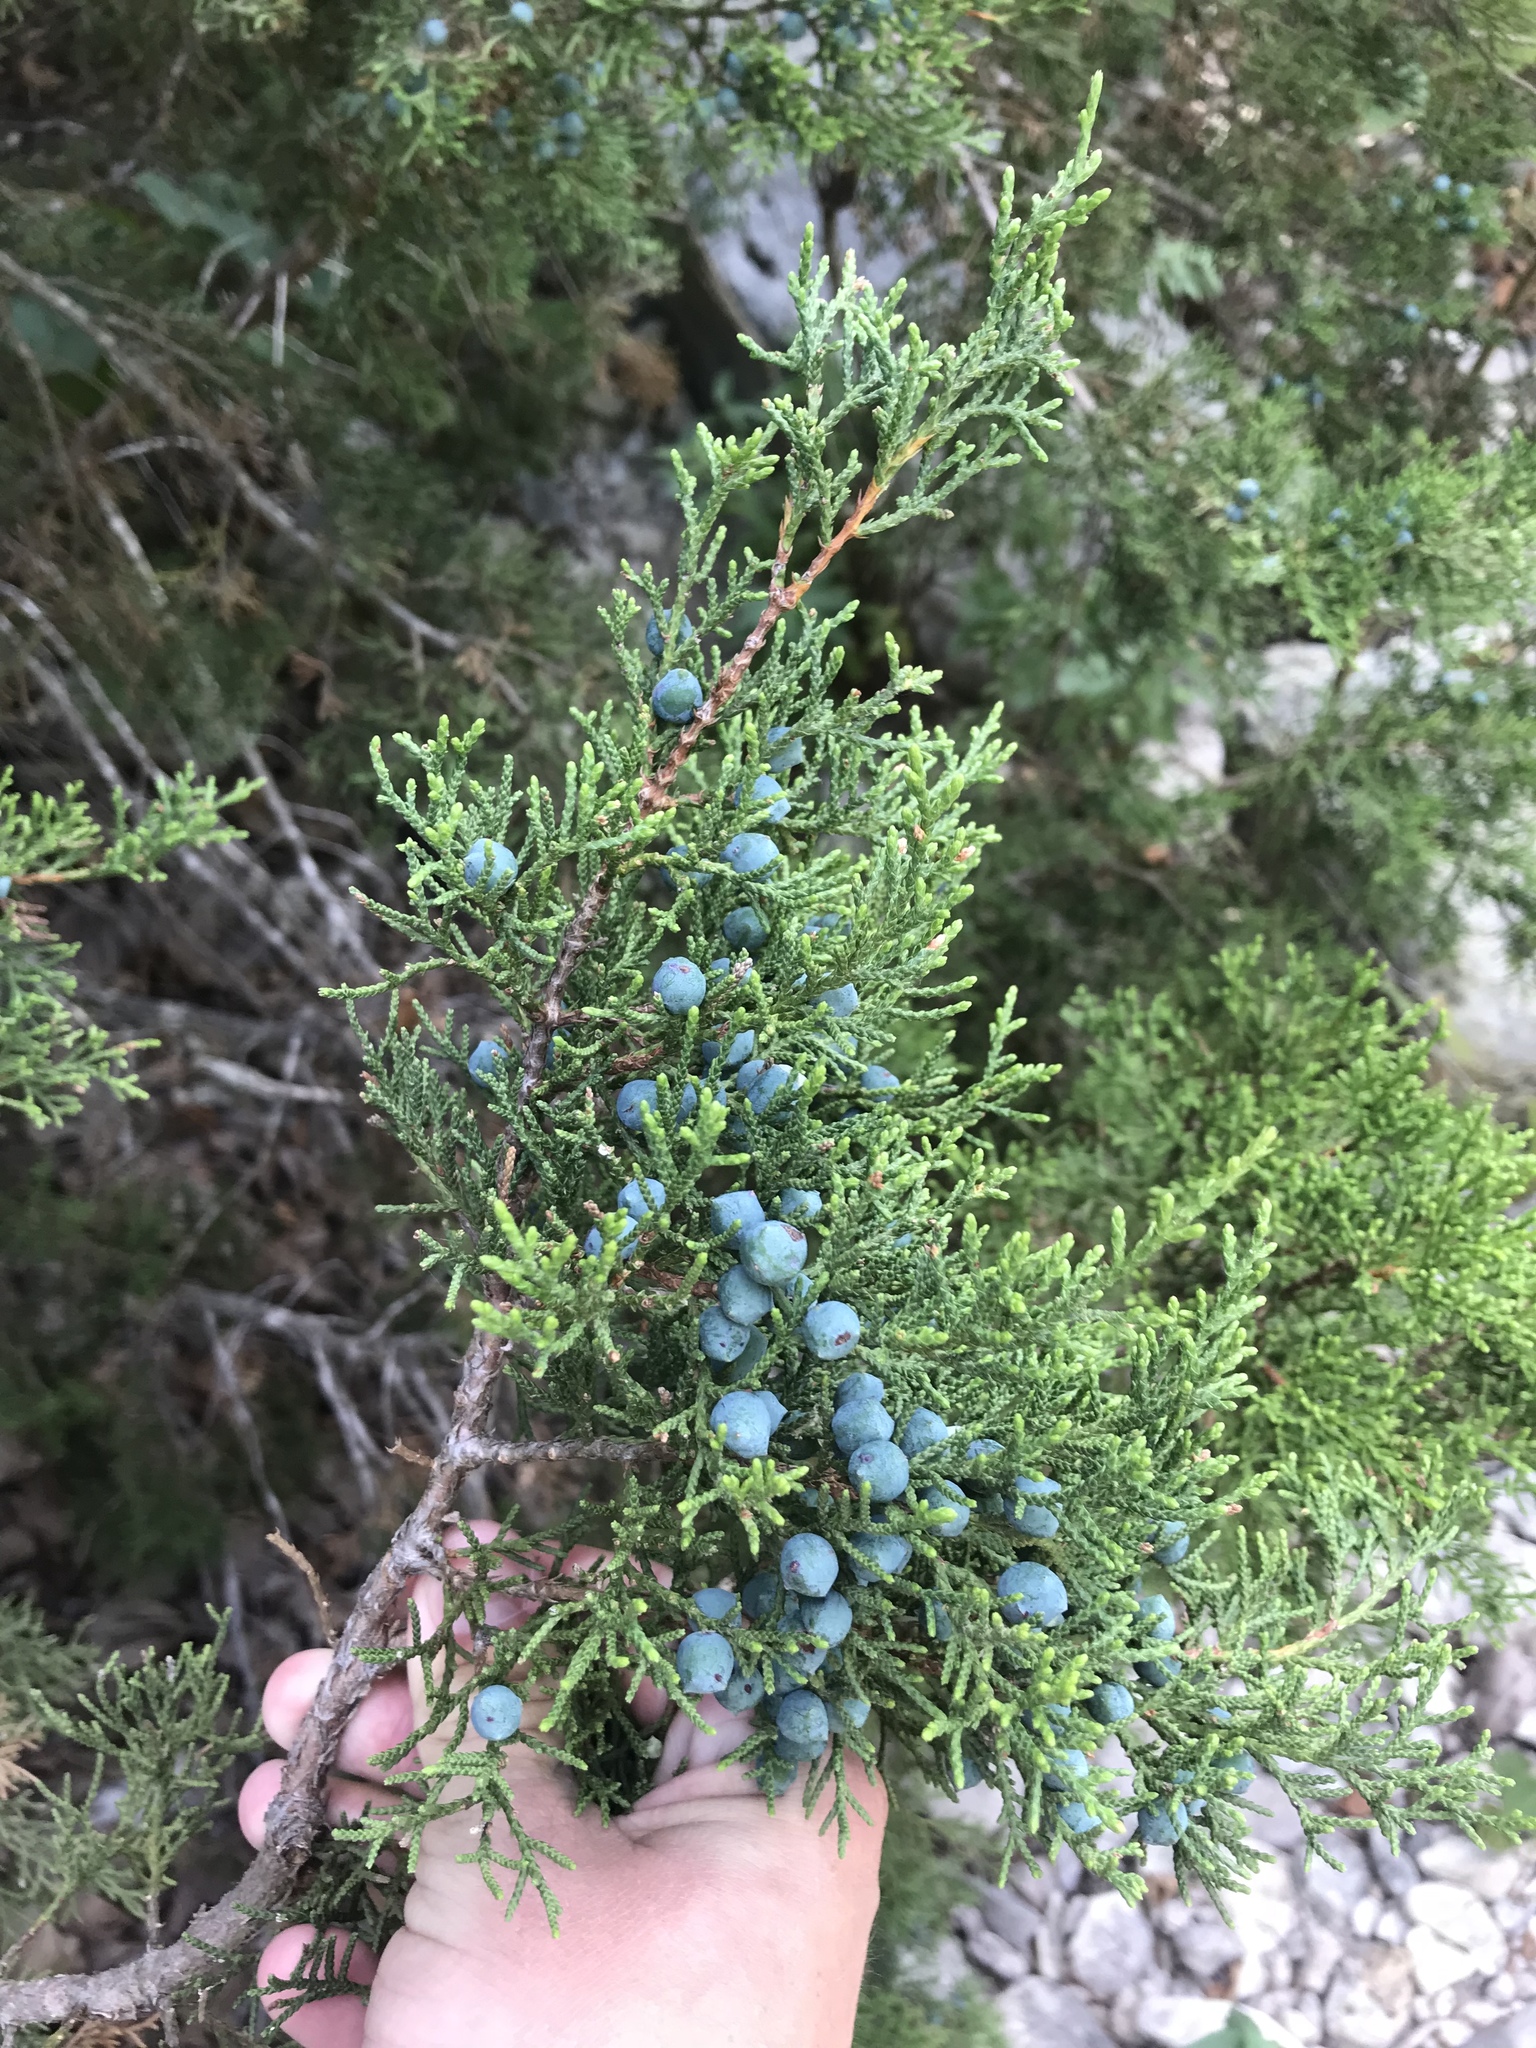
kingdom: Plantae
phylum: Tracheophyta
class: Pinopsida
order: Pinales
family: Cupressaceae
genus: Juniperus
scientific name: Juniperus ashei
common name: Mexican juniper
